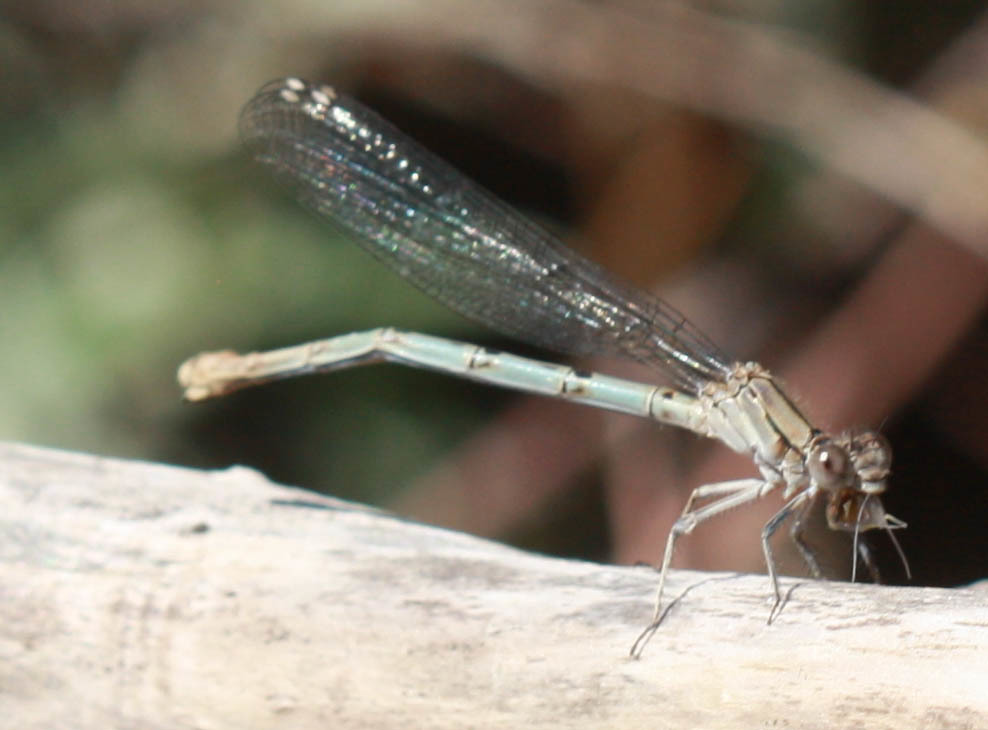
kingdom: Animalia
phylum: Arthropoda
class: Insecta
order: Odonata
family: Coenagrionidae
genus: Argia
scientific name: Argia emma
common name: Emma's dancer
